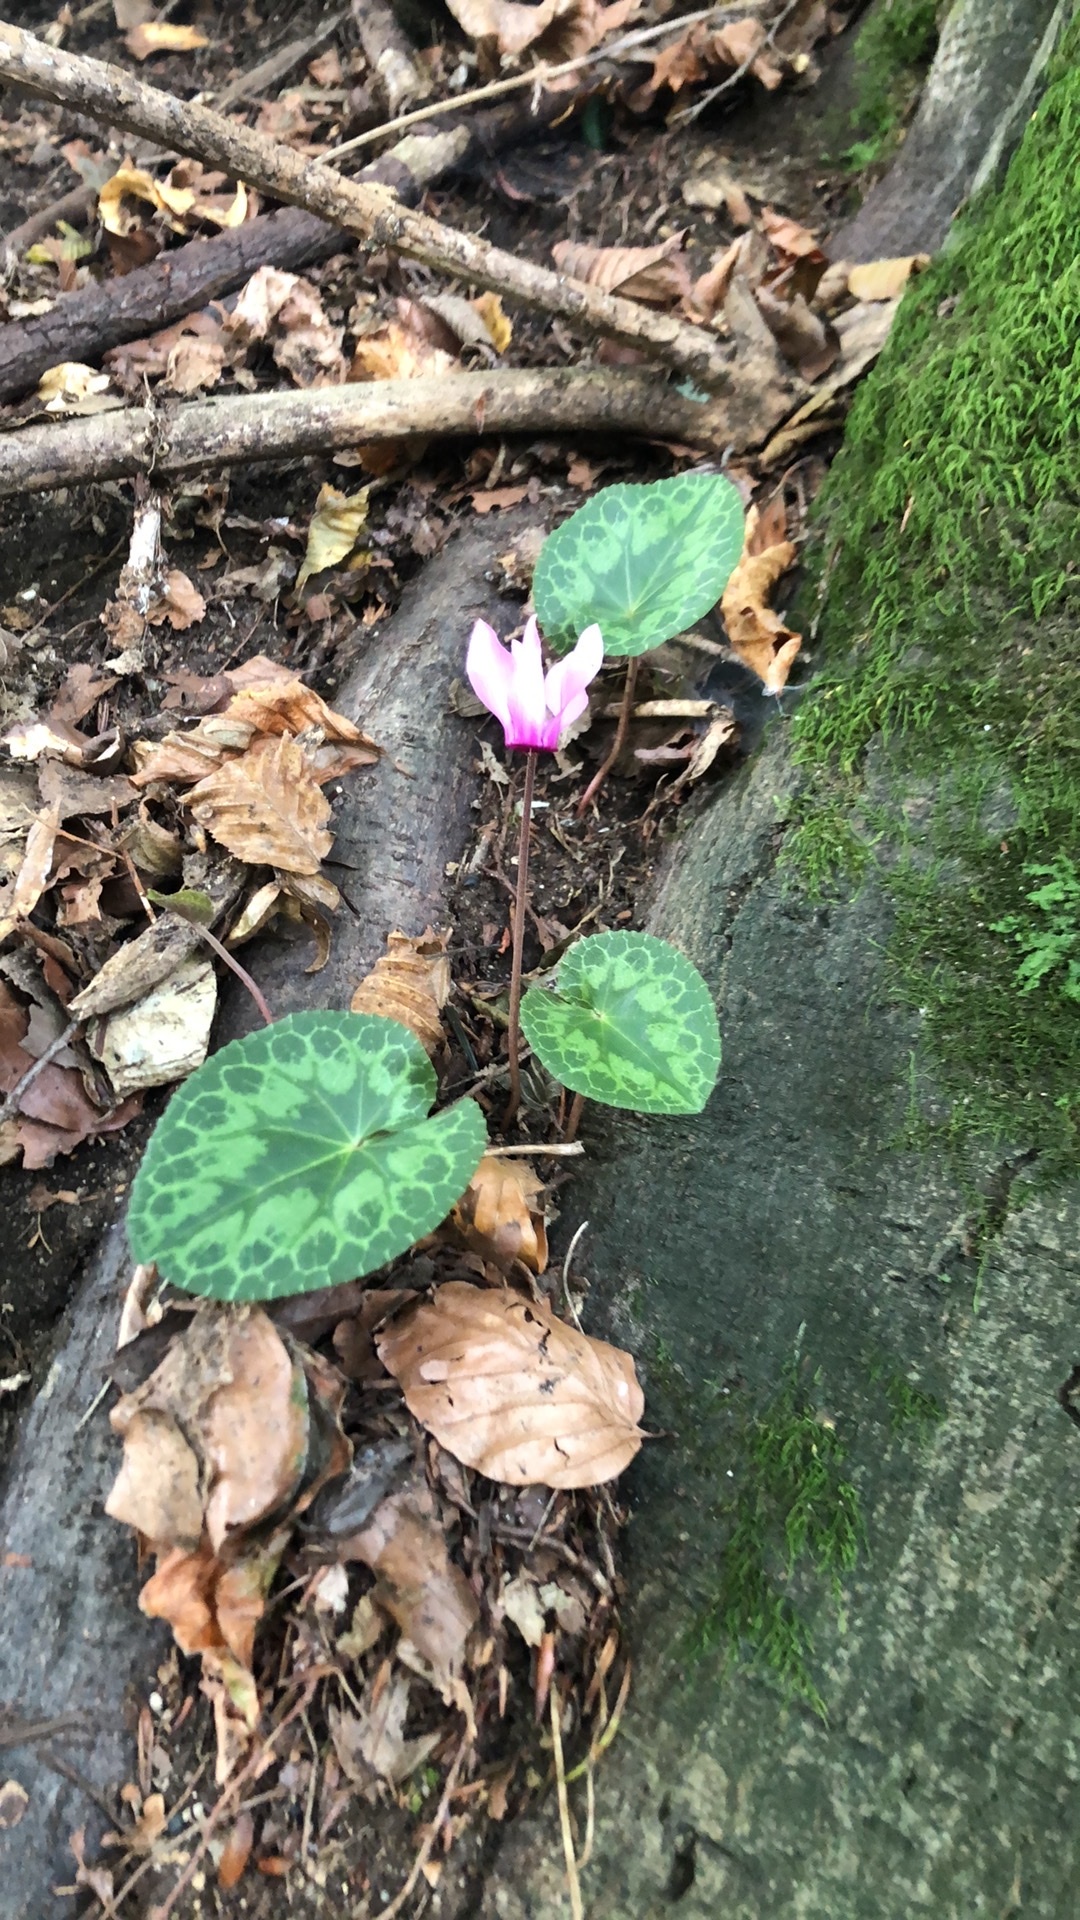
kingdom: Plantae
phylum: Tracheophyta
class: Magnoliopsida
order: Ericales
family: Primulaceae
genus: Cyclamen
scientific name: Cyclamen purpurascens
